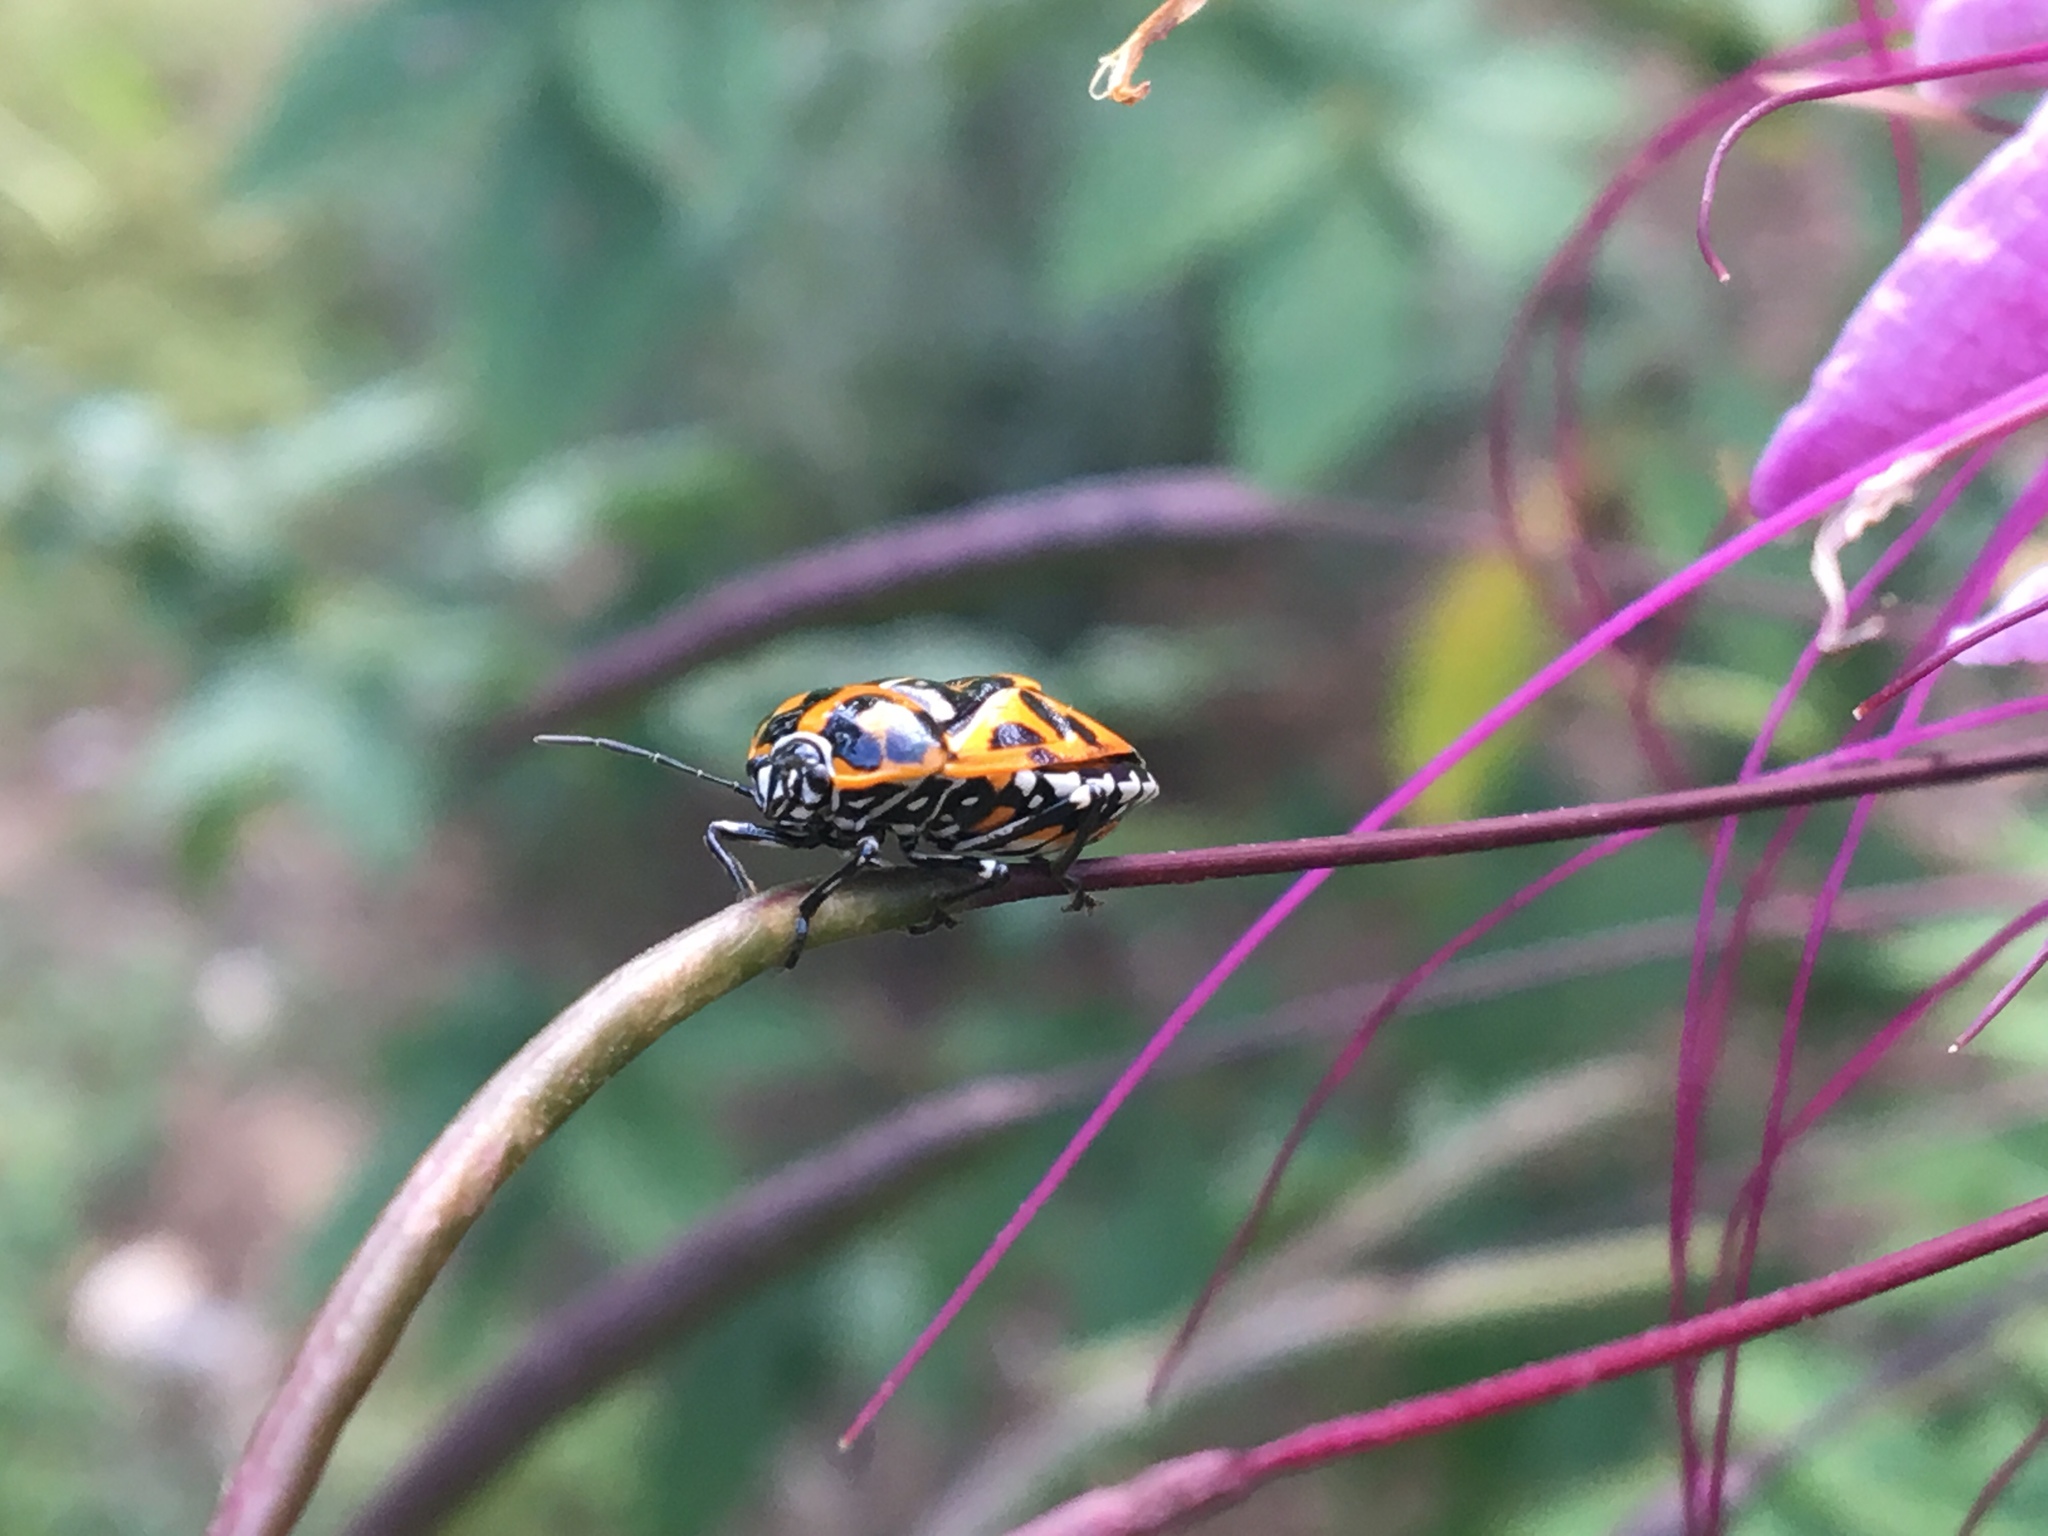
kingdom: Animalia
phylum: Arthropoda
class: Insecta
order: Hemiptera
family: Pentatomidae
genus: Murgantia
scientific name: Murgantia histrionica
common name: Harlequin bug
